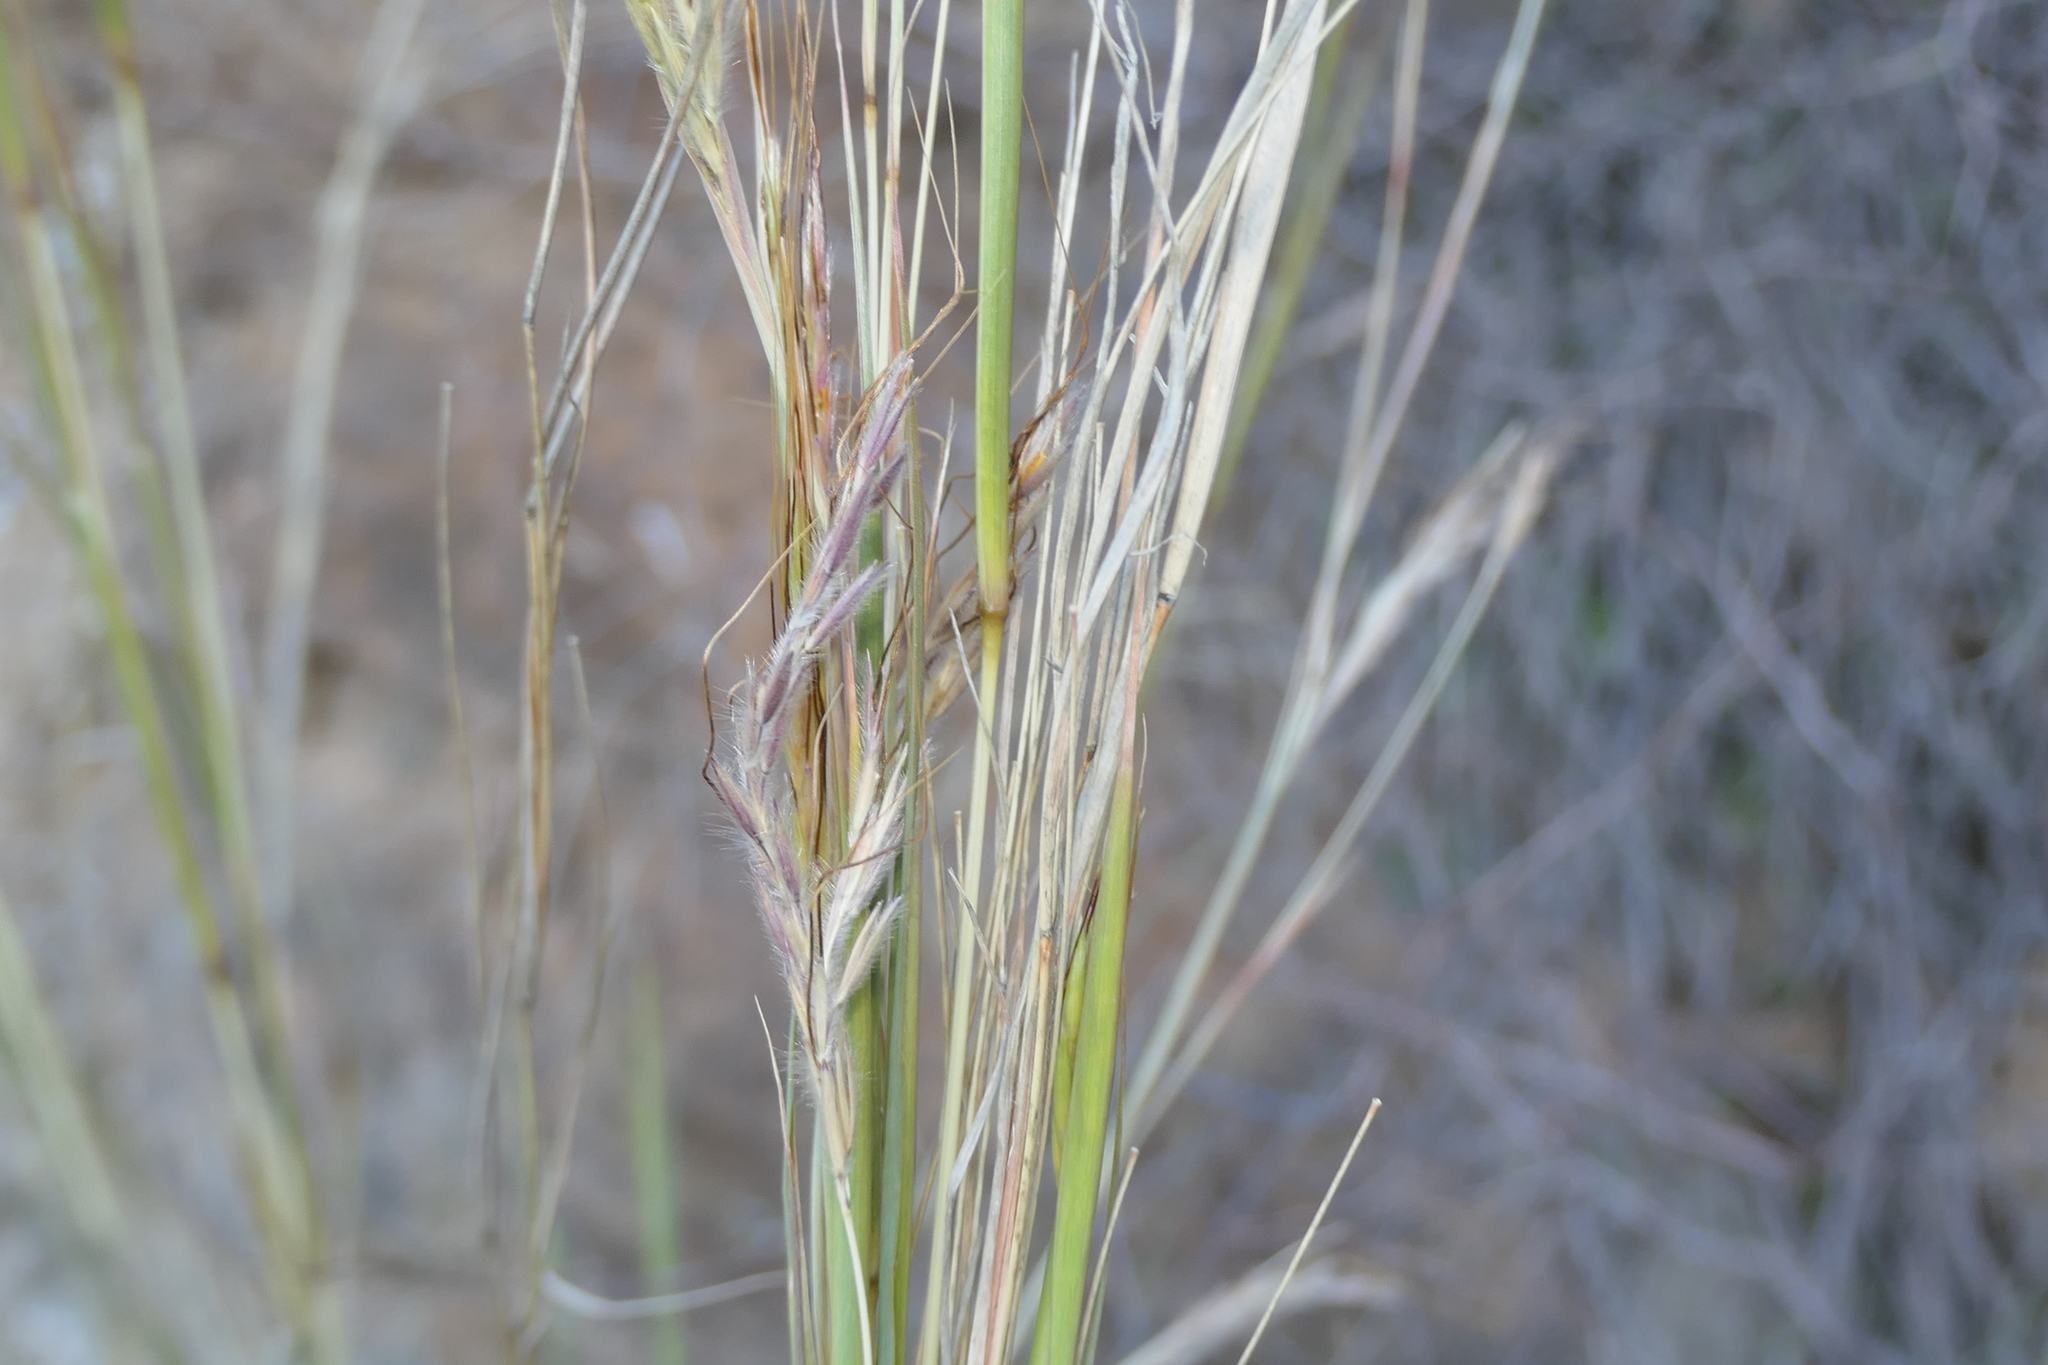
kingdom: Plantae
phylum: Tracheophyta
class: Liliopsida
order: Poales
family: Poaceae
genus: Hyparrhenia
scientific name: Hyparrhenia hirta
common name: Thatching grass
